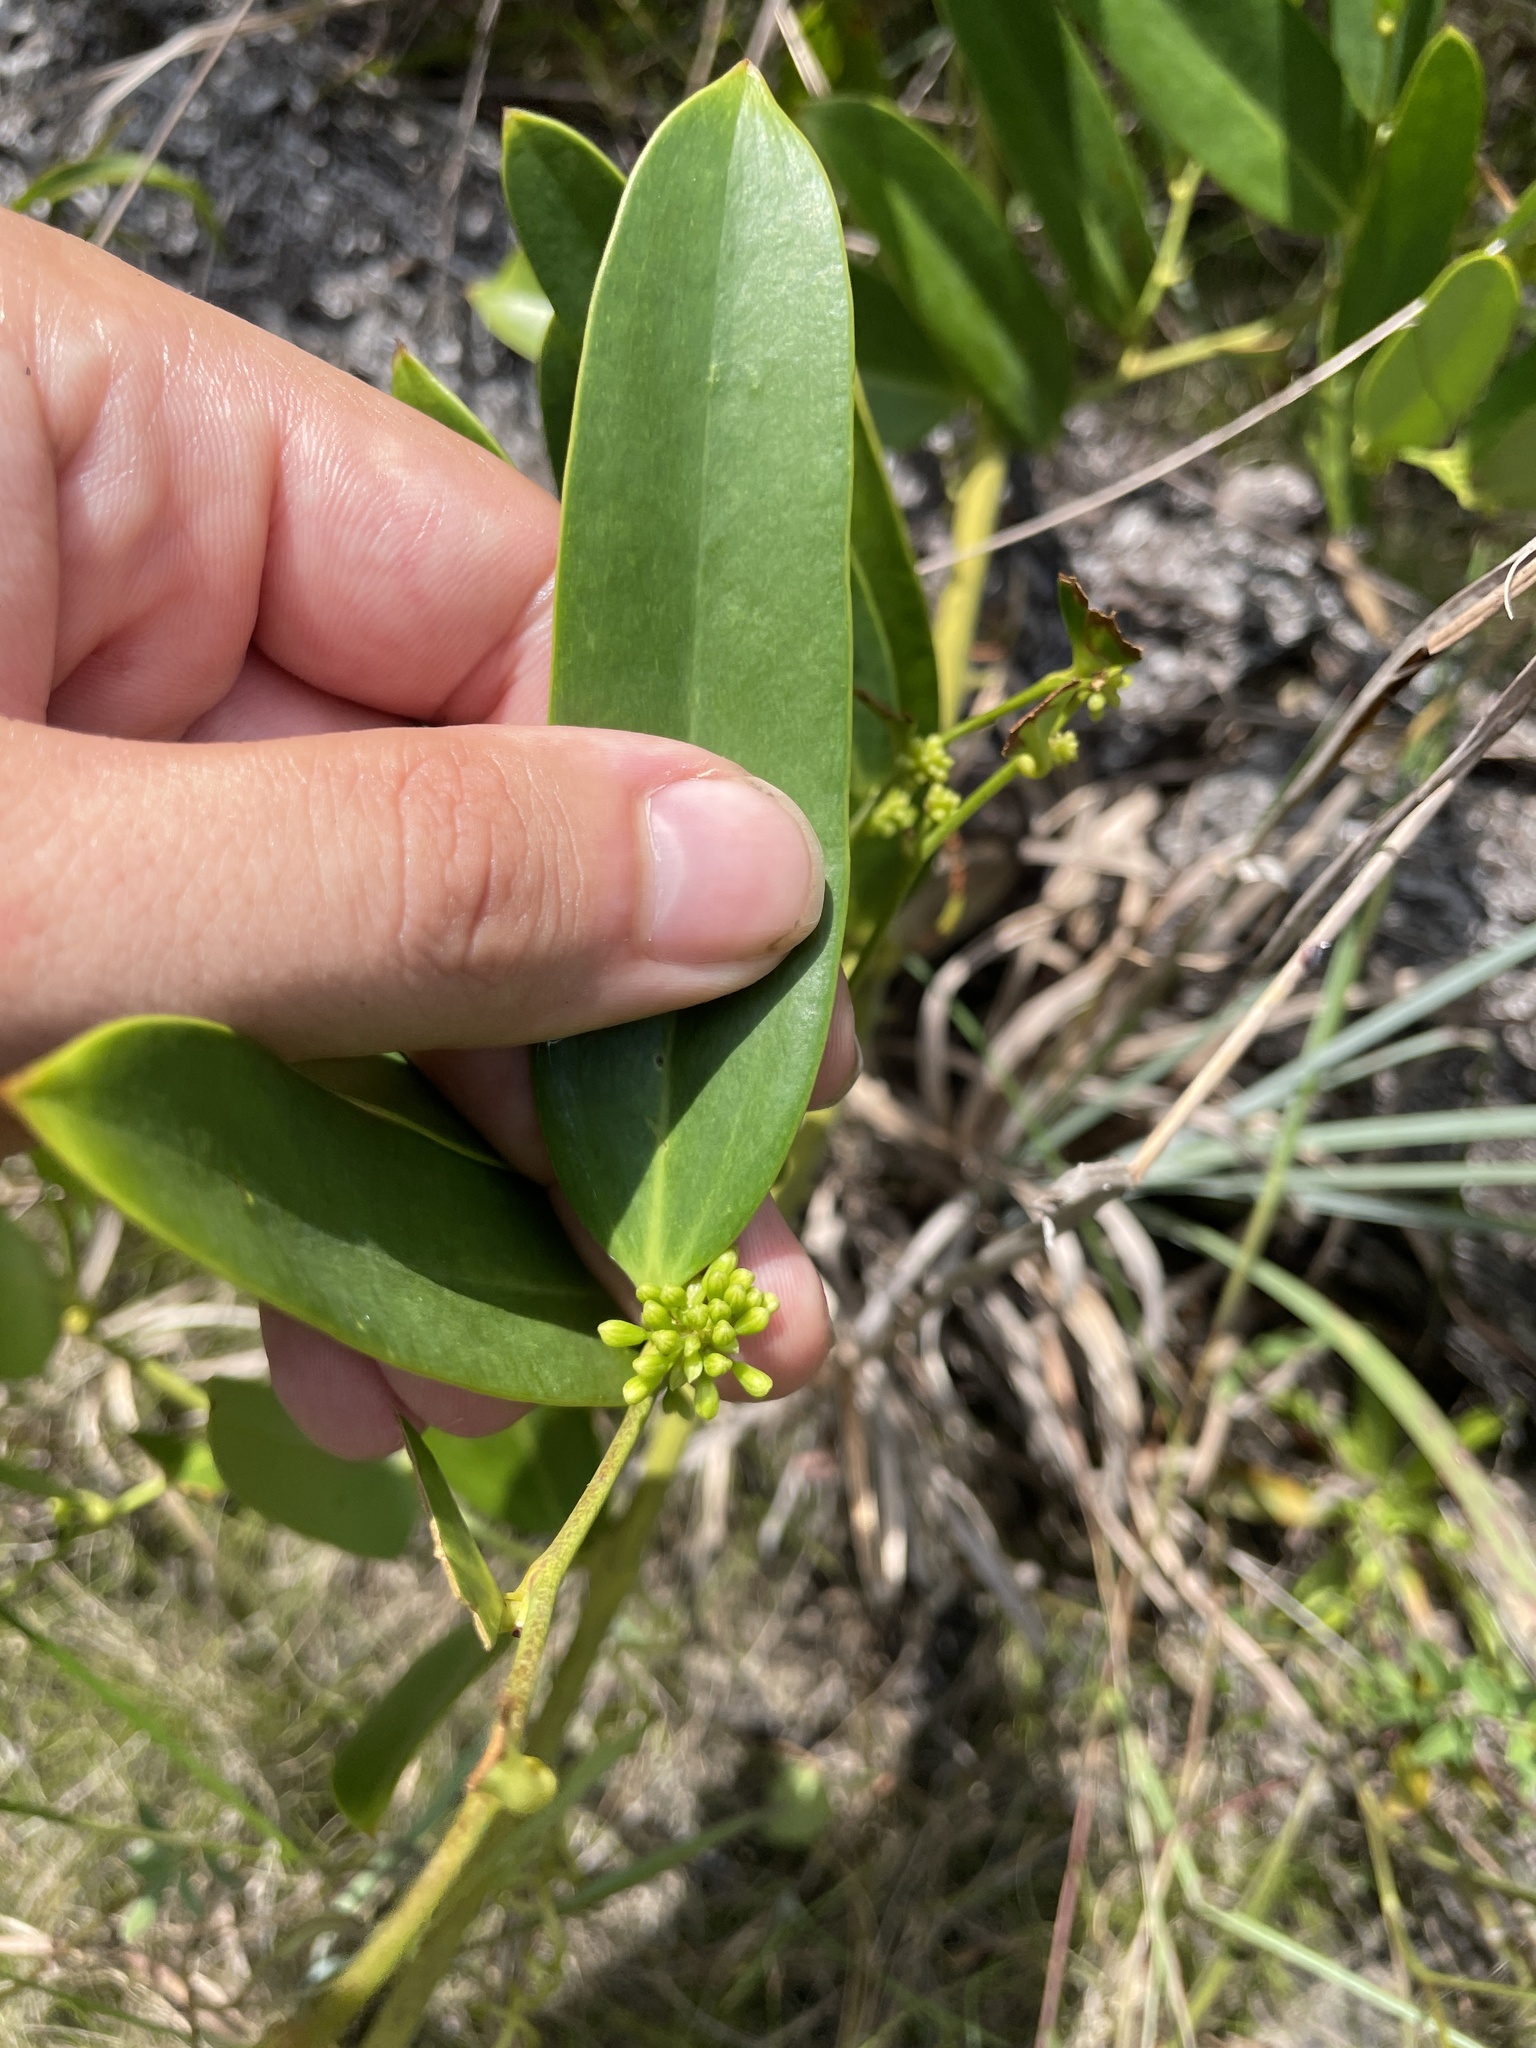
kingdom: Plantae
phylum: Tracheophyta
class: Liliopsida
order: Liliales
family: Smilacaceae
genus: Smilax
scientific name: Smilax laurifolia
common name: Bamboovine
